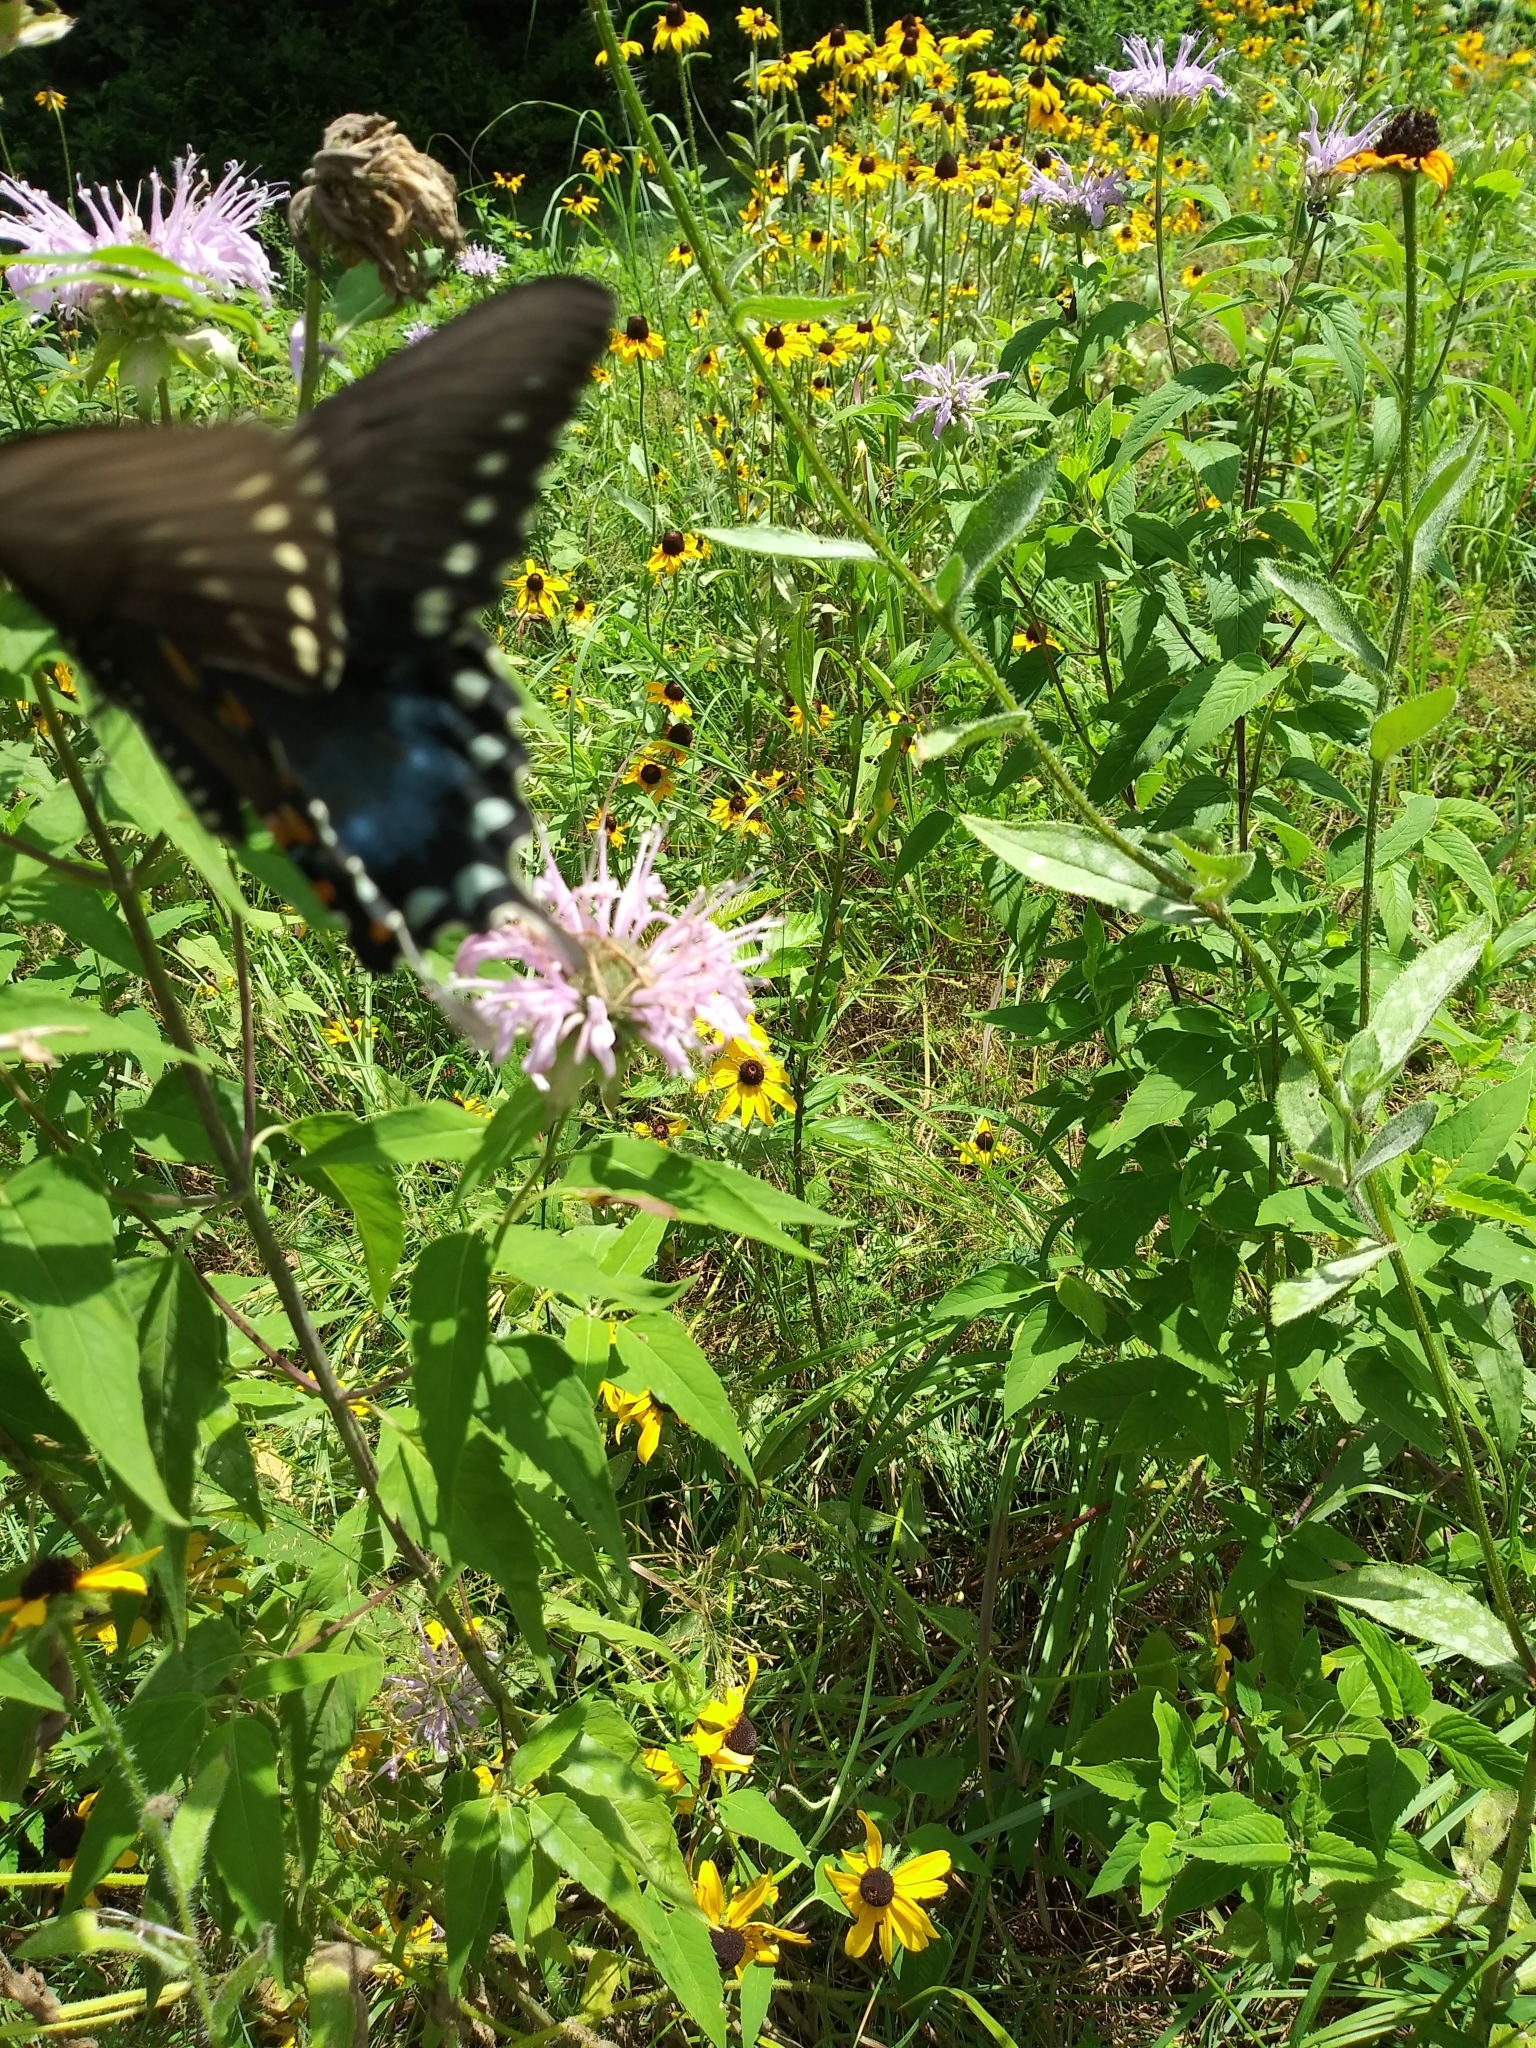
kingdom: Animalia
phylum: Arthropoda
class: Insecta
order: Lepidoptera
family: Papilionidae
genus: Papilio
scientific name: Papilio troilus
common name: Spicebush swallowtail
